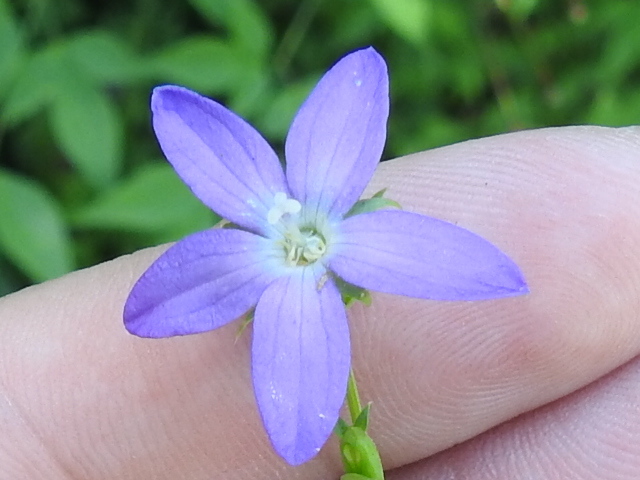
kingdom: Plantae
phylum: Tracheophyta
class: Magnoliopsida
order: Asterales
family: Campanulaceae
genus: Triodanis
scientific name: Triodanis perfoliata
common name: Clasping venus' looking-glass
